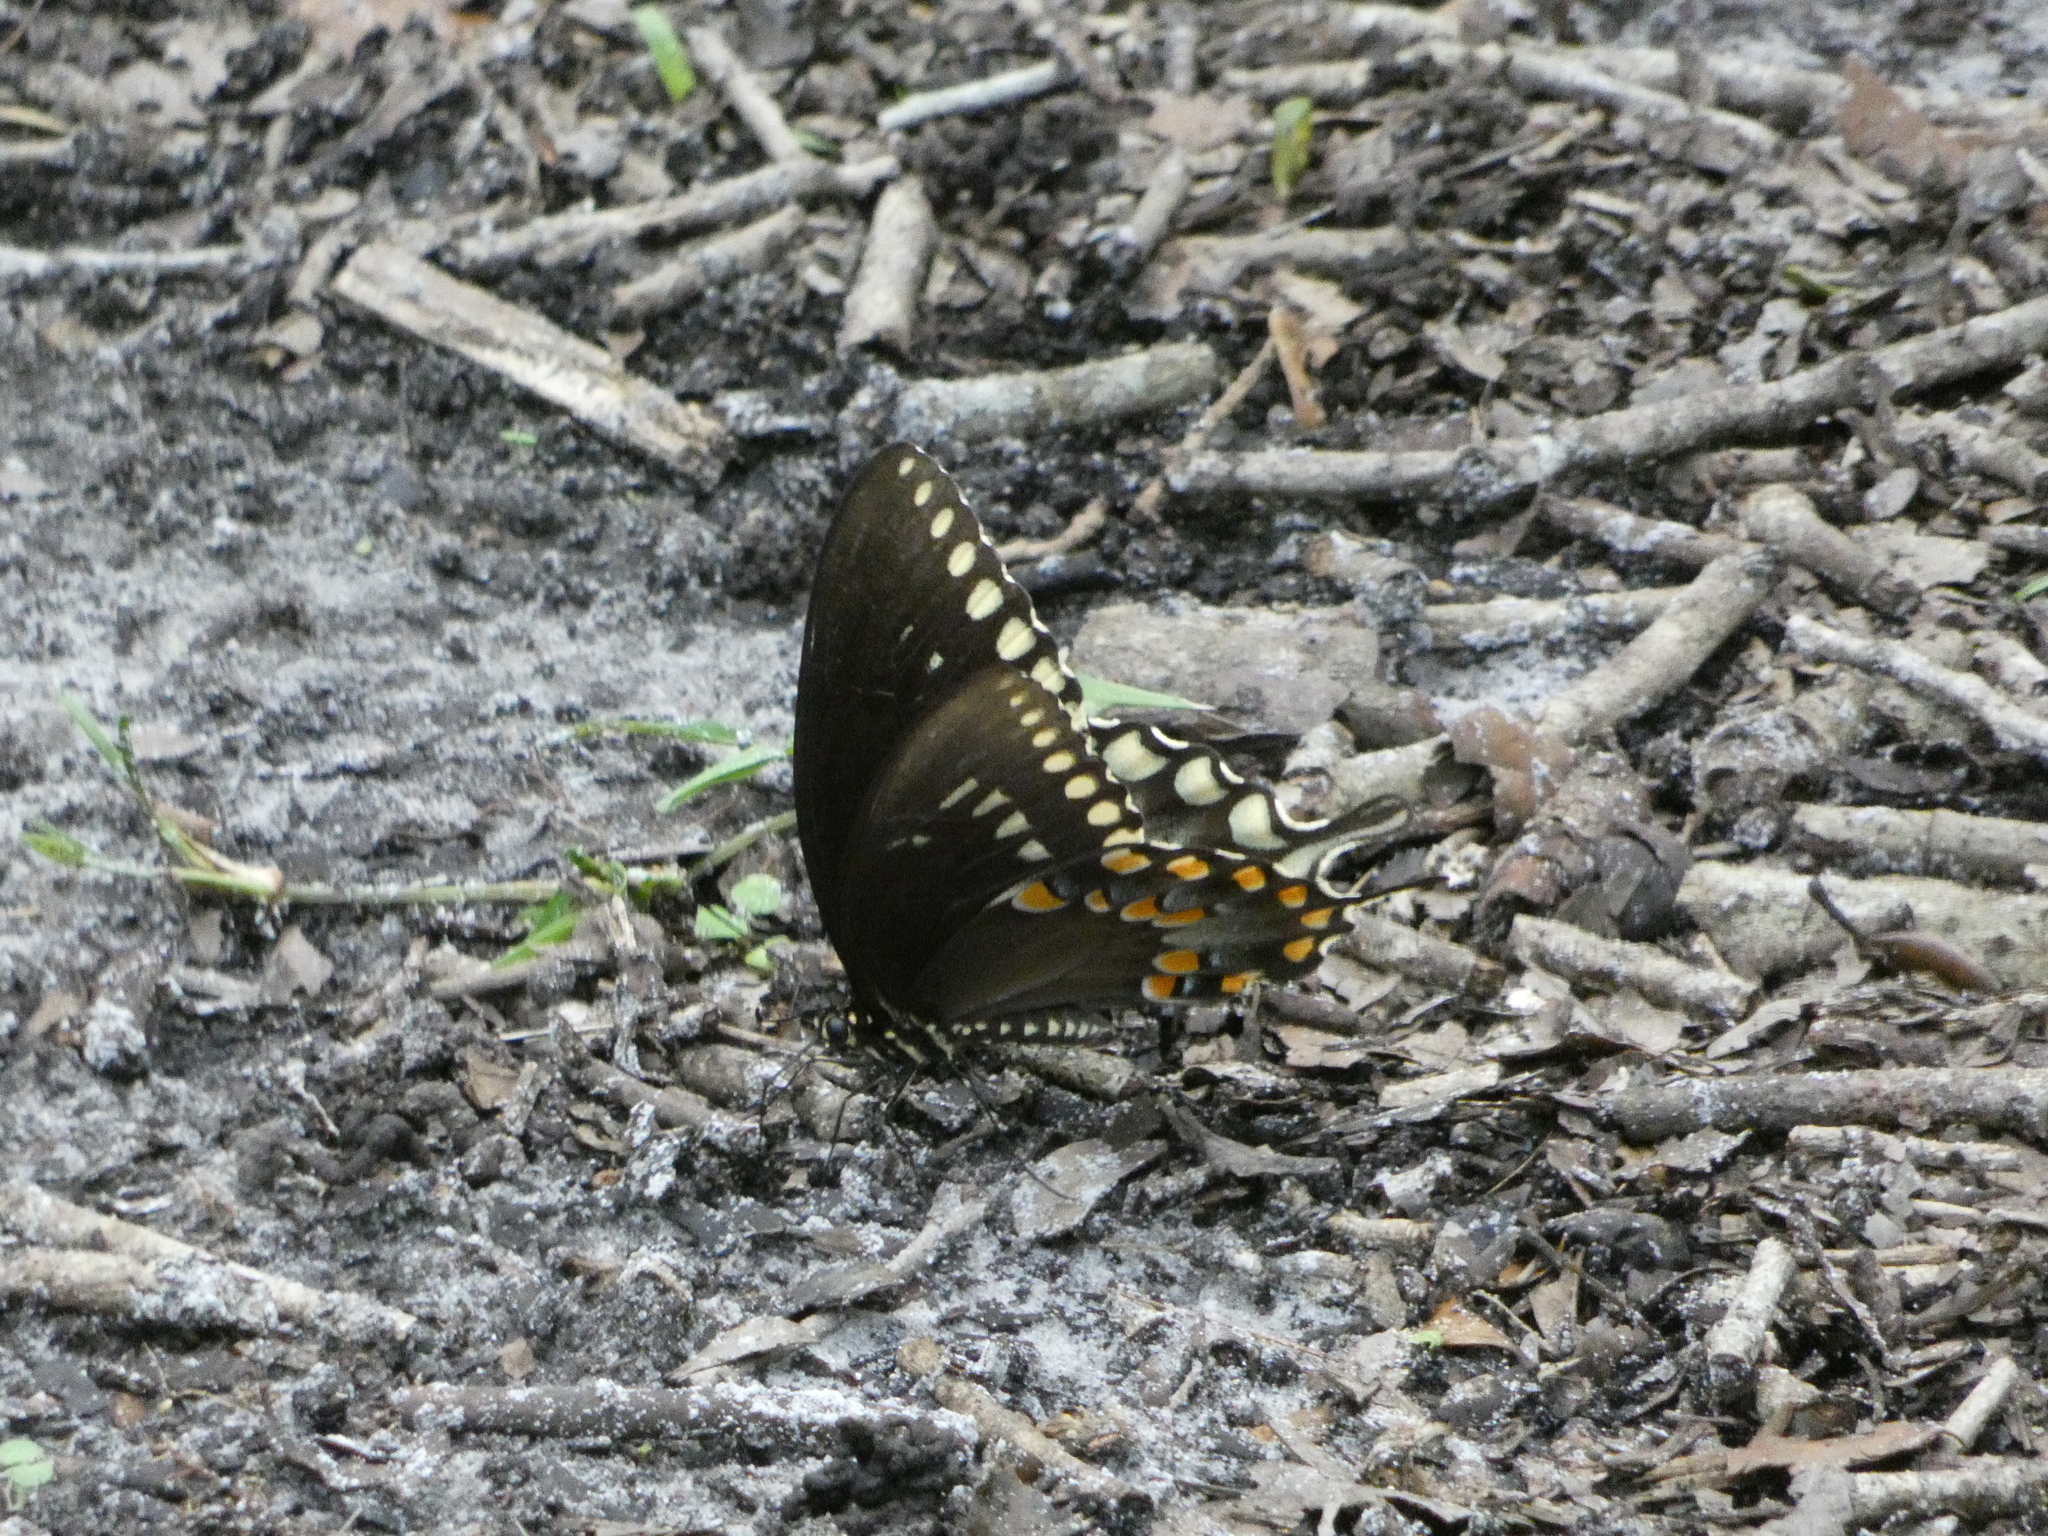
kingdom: Animalia
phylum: Arthropoda
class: Insecta
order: Lepidoptera
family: Papilionidae
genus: Papilio
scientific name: Papilio troilus
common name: Spicebush swallowtail
